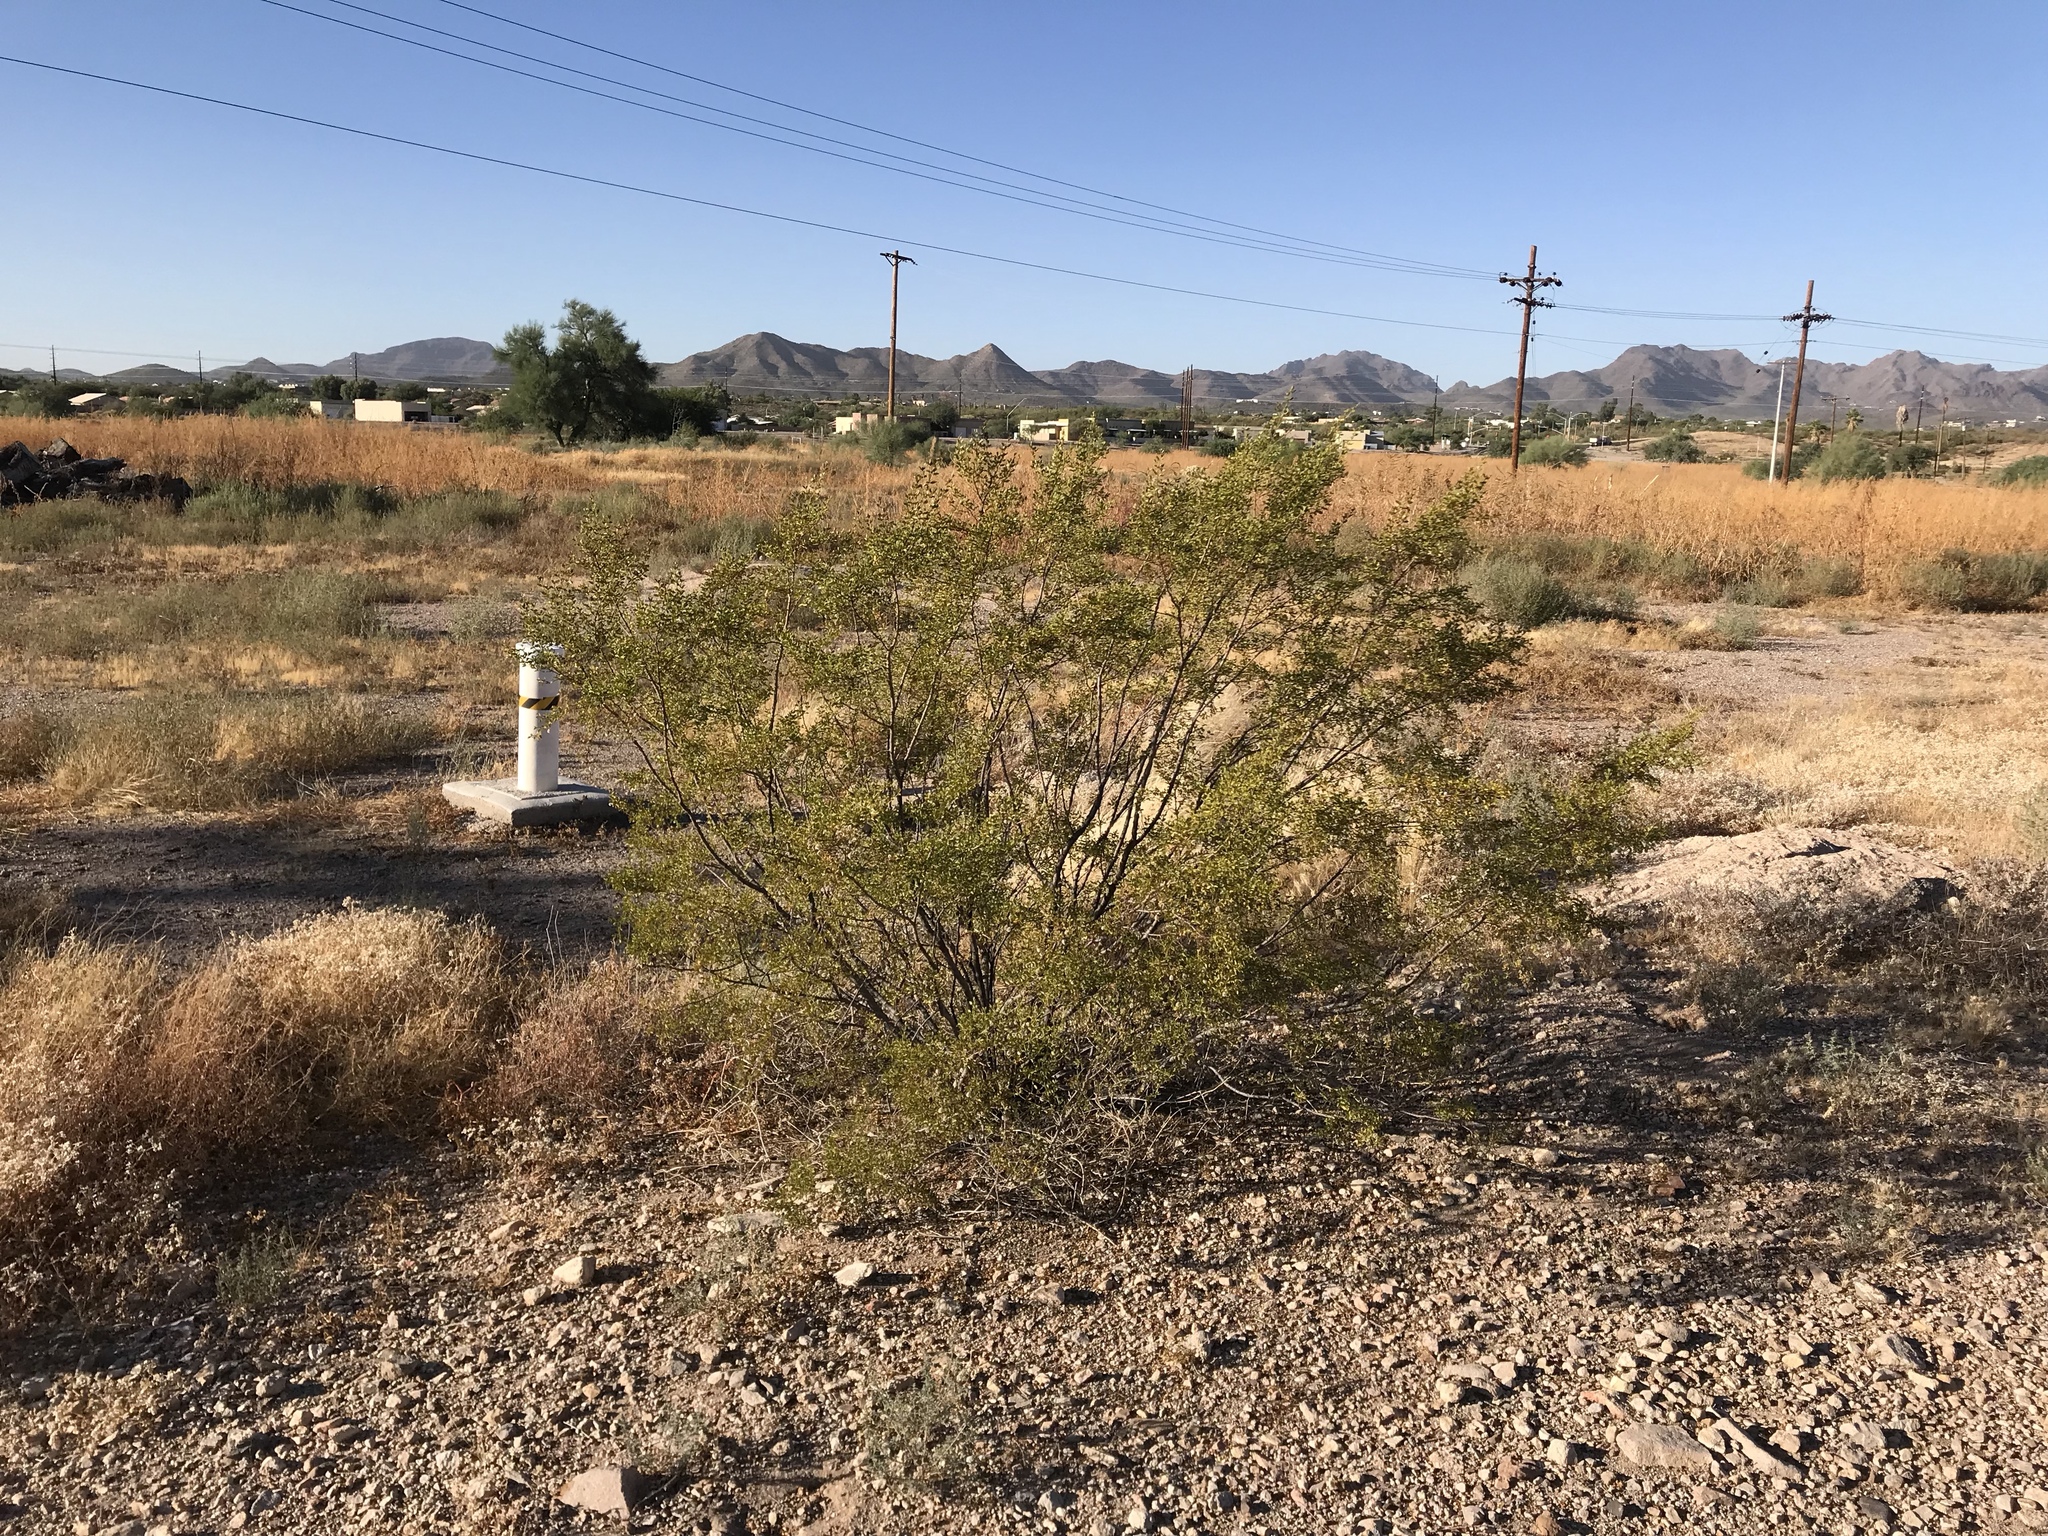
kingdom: Plantae
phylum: Tracheophyta
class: Magnoliopsida
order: Zygophyllales
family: Zygophyllaceae
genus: Larrea
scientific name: Larrea tridentata
